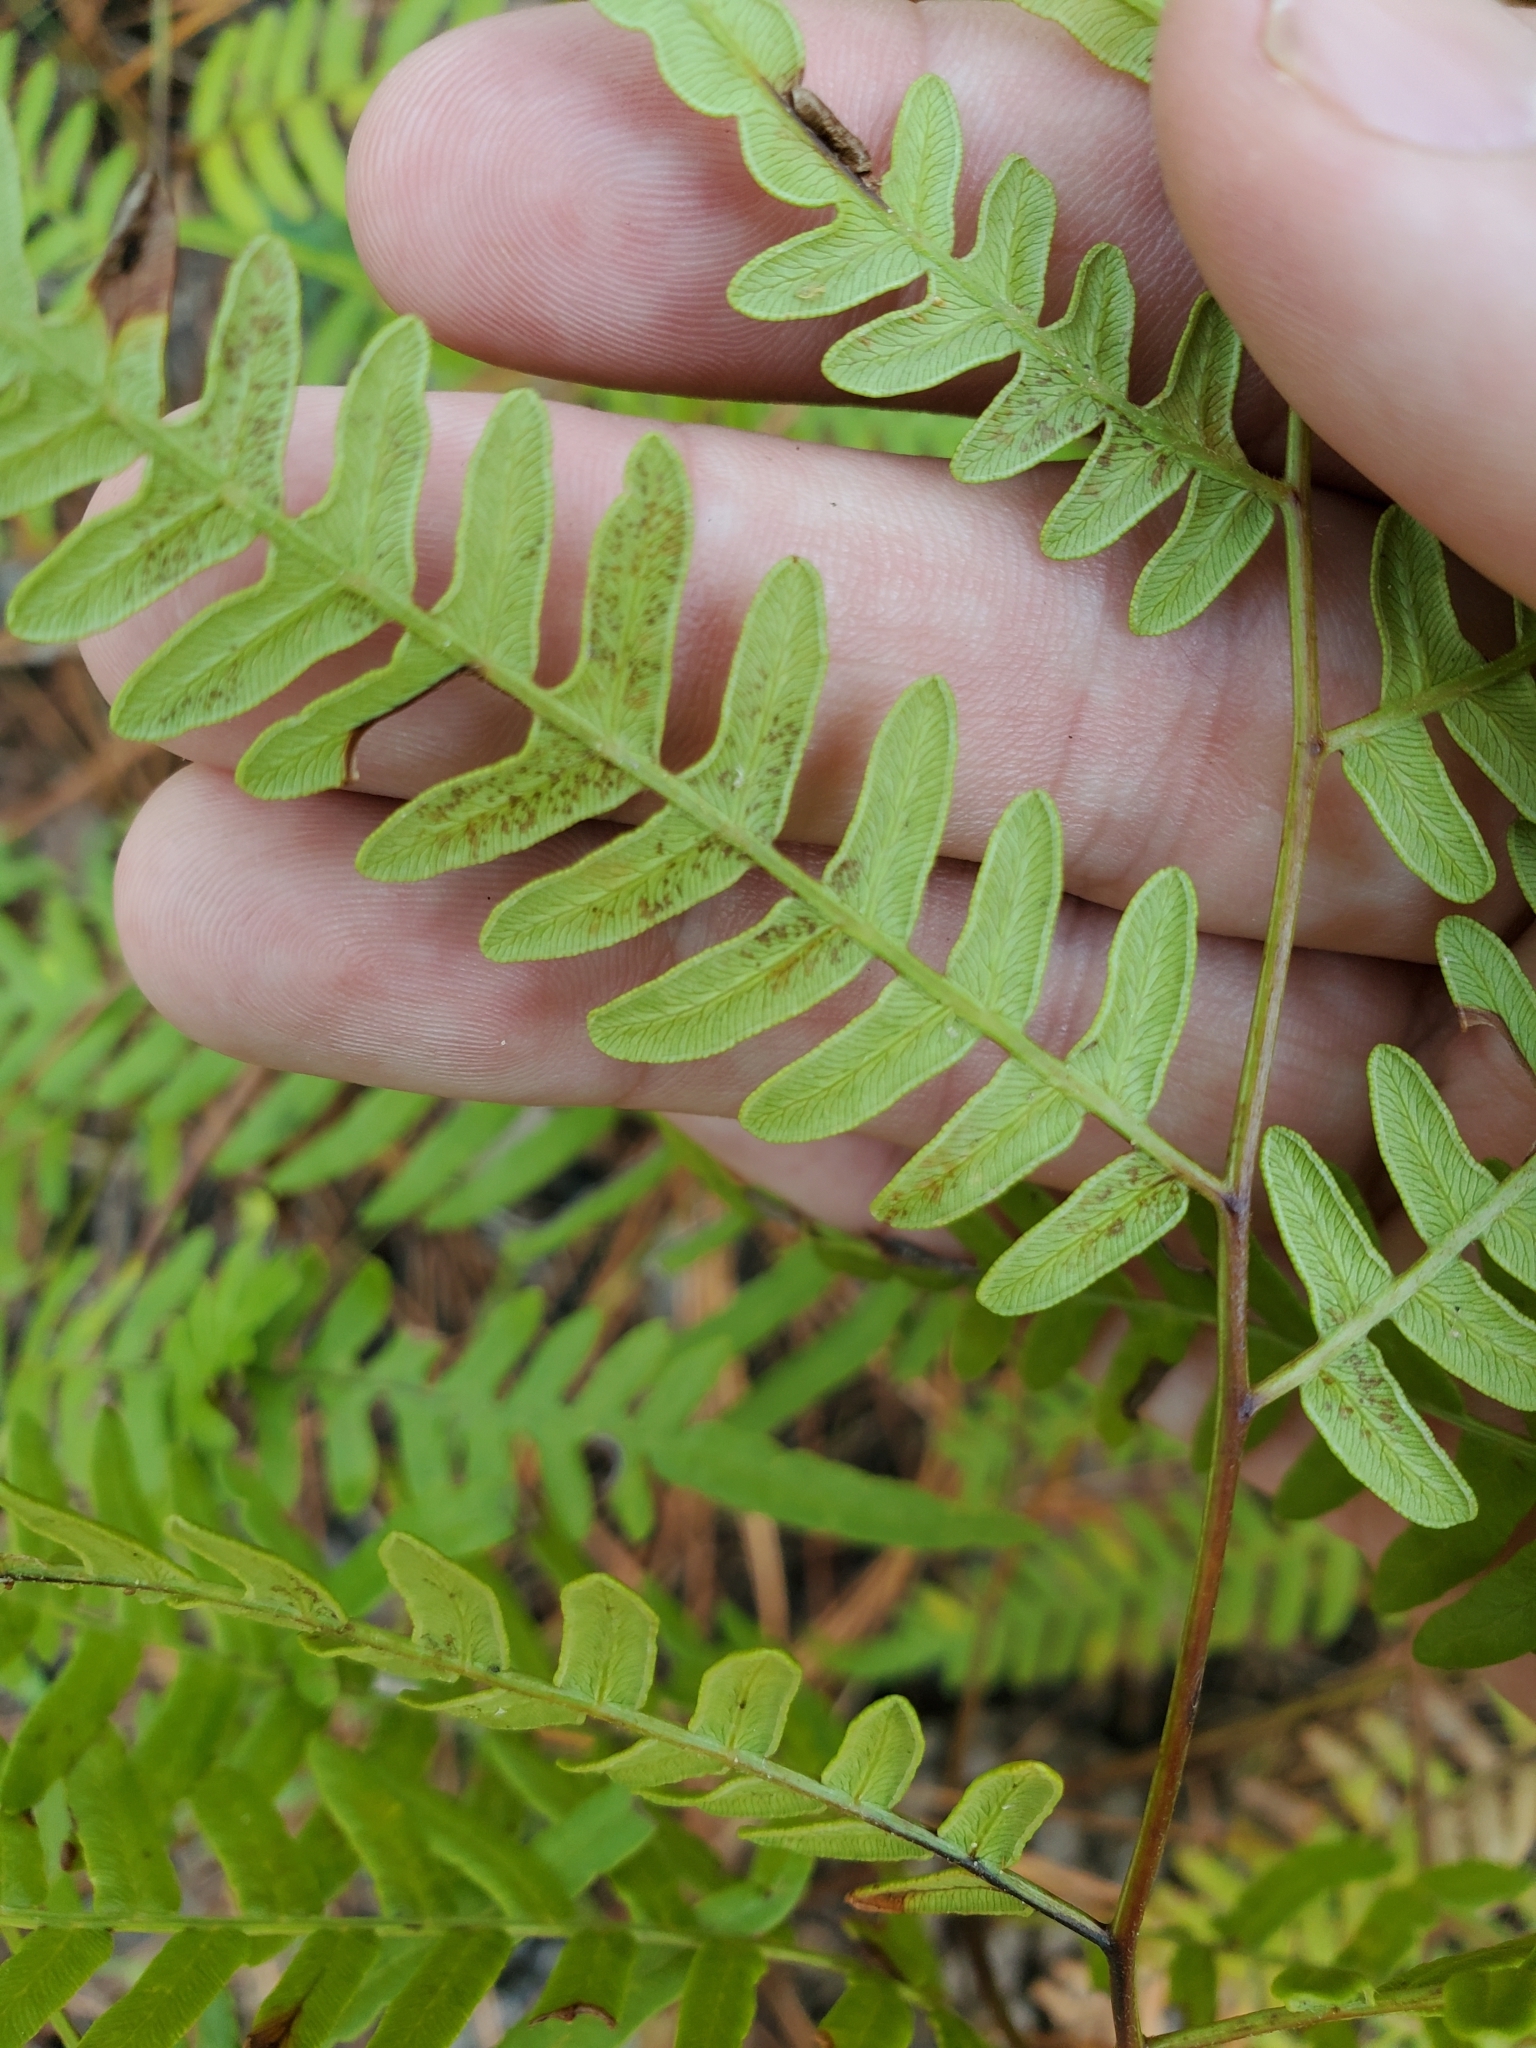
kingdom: Plantae
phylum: Tracheophyta
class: Polypodiopsida
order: Polypodiales
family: Dennstaedtiaceae
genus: Pteridium
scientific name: Pteridium aquilinum
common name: Bracken
